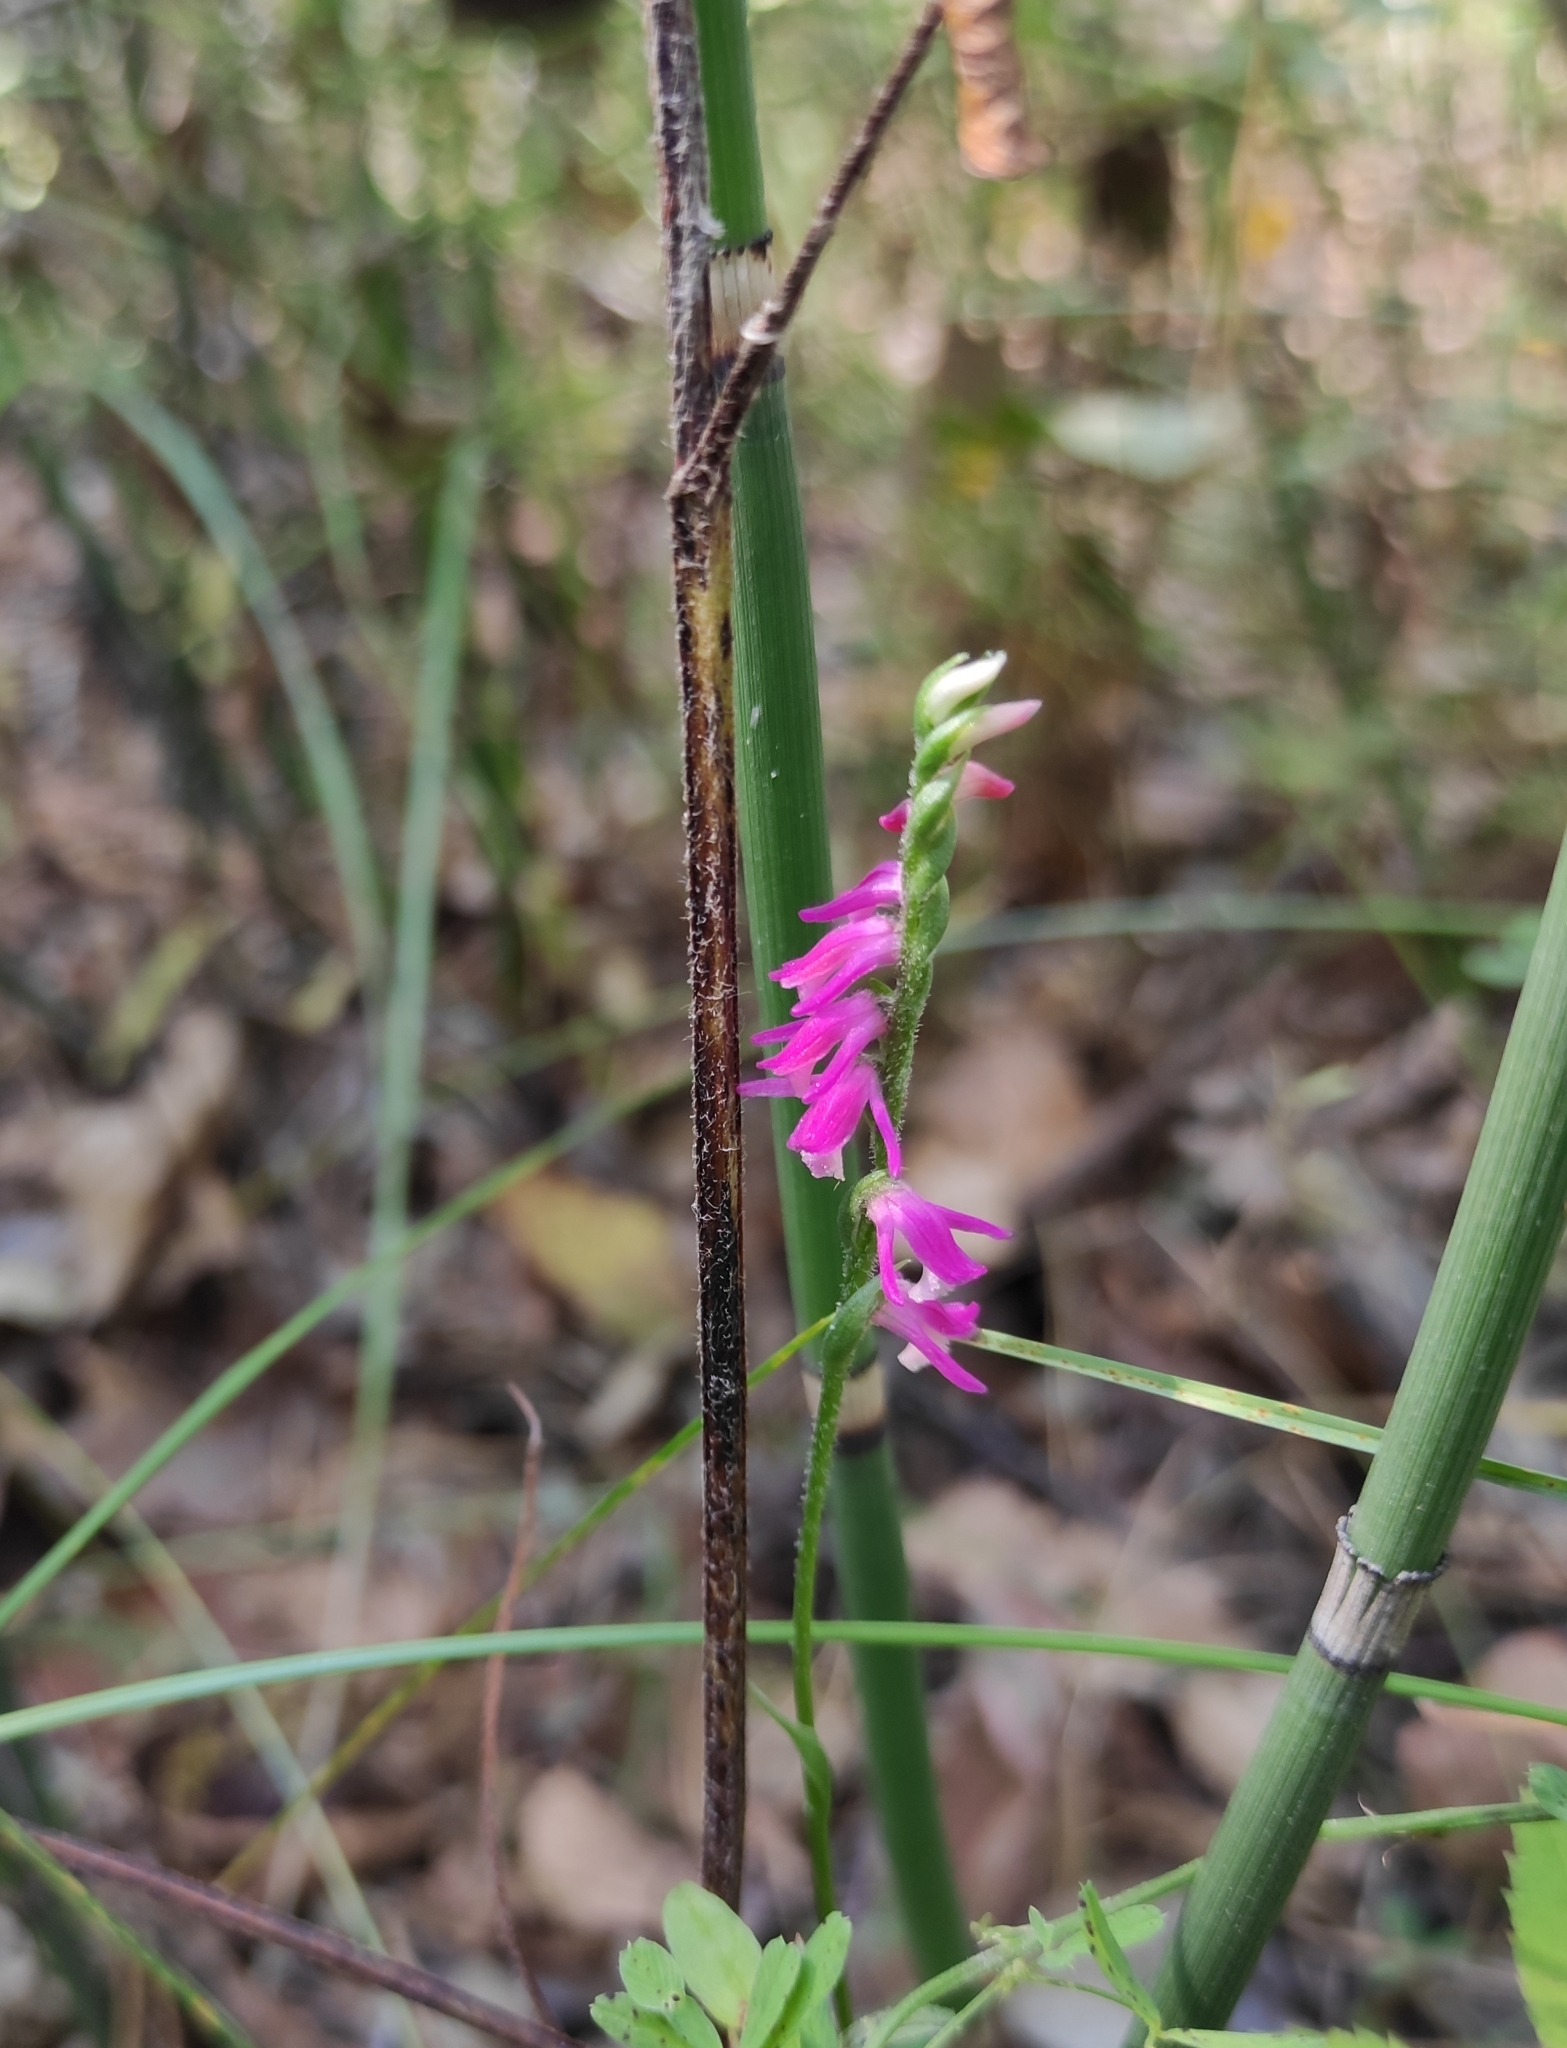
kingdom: Plantae
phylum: Tracheophyta
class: Liliopsida
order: Asparagales
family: Orchidaceae
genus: Spiranthes
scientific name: Spiranthes australis
